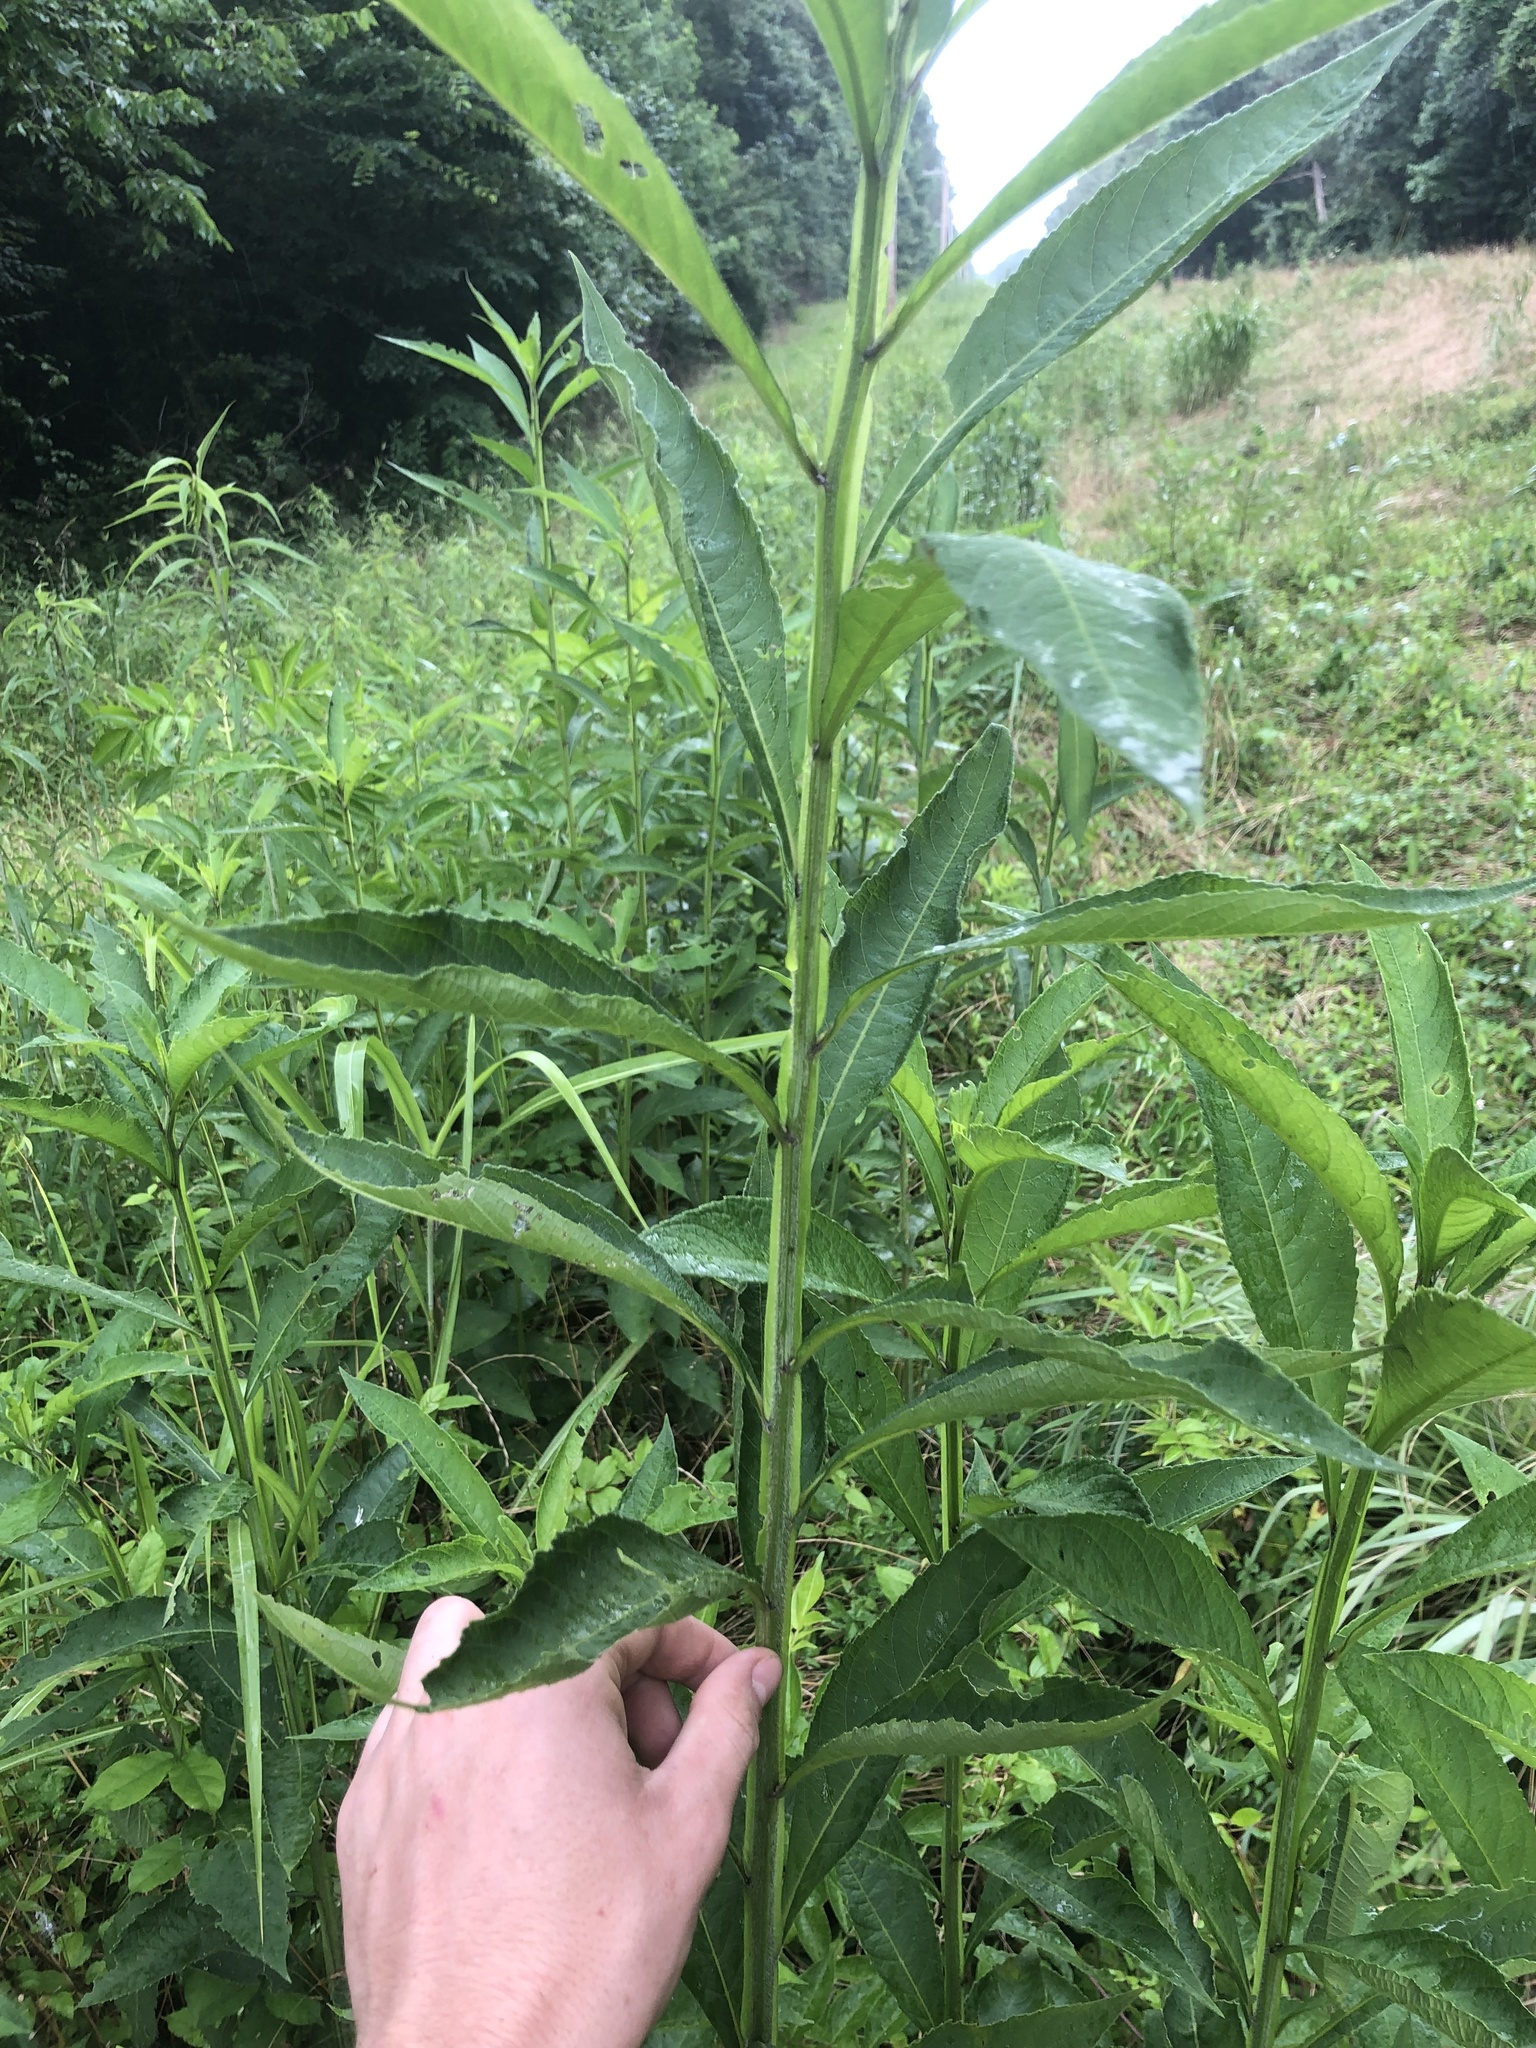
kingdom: Plantae
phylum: Tracheophyta
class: Magnoliopsida
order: Asterales
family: Asteraceae
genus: Verbesina
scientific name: Verbesina alternifolia
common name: Wingstem
